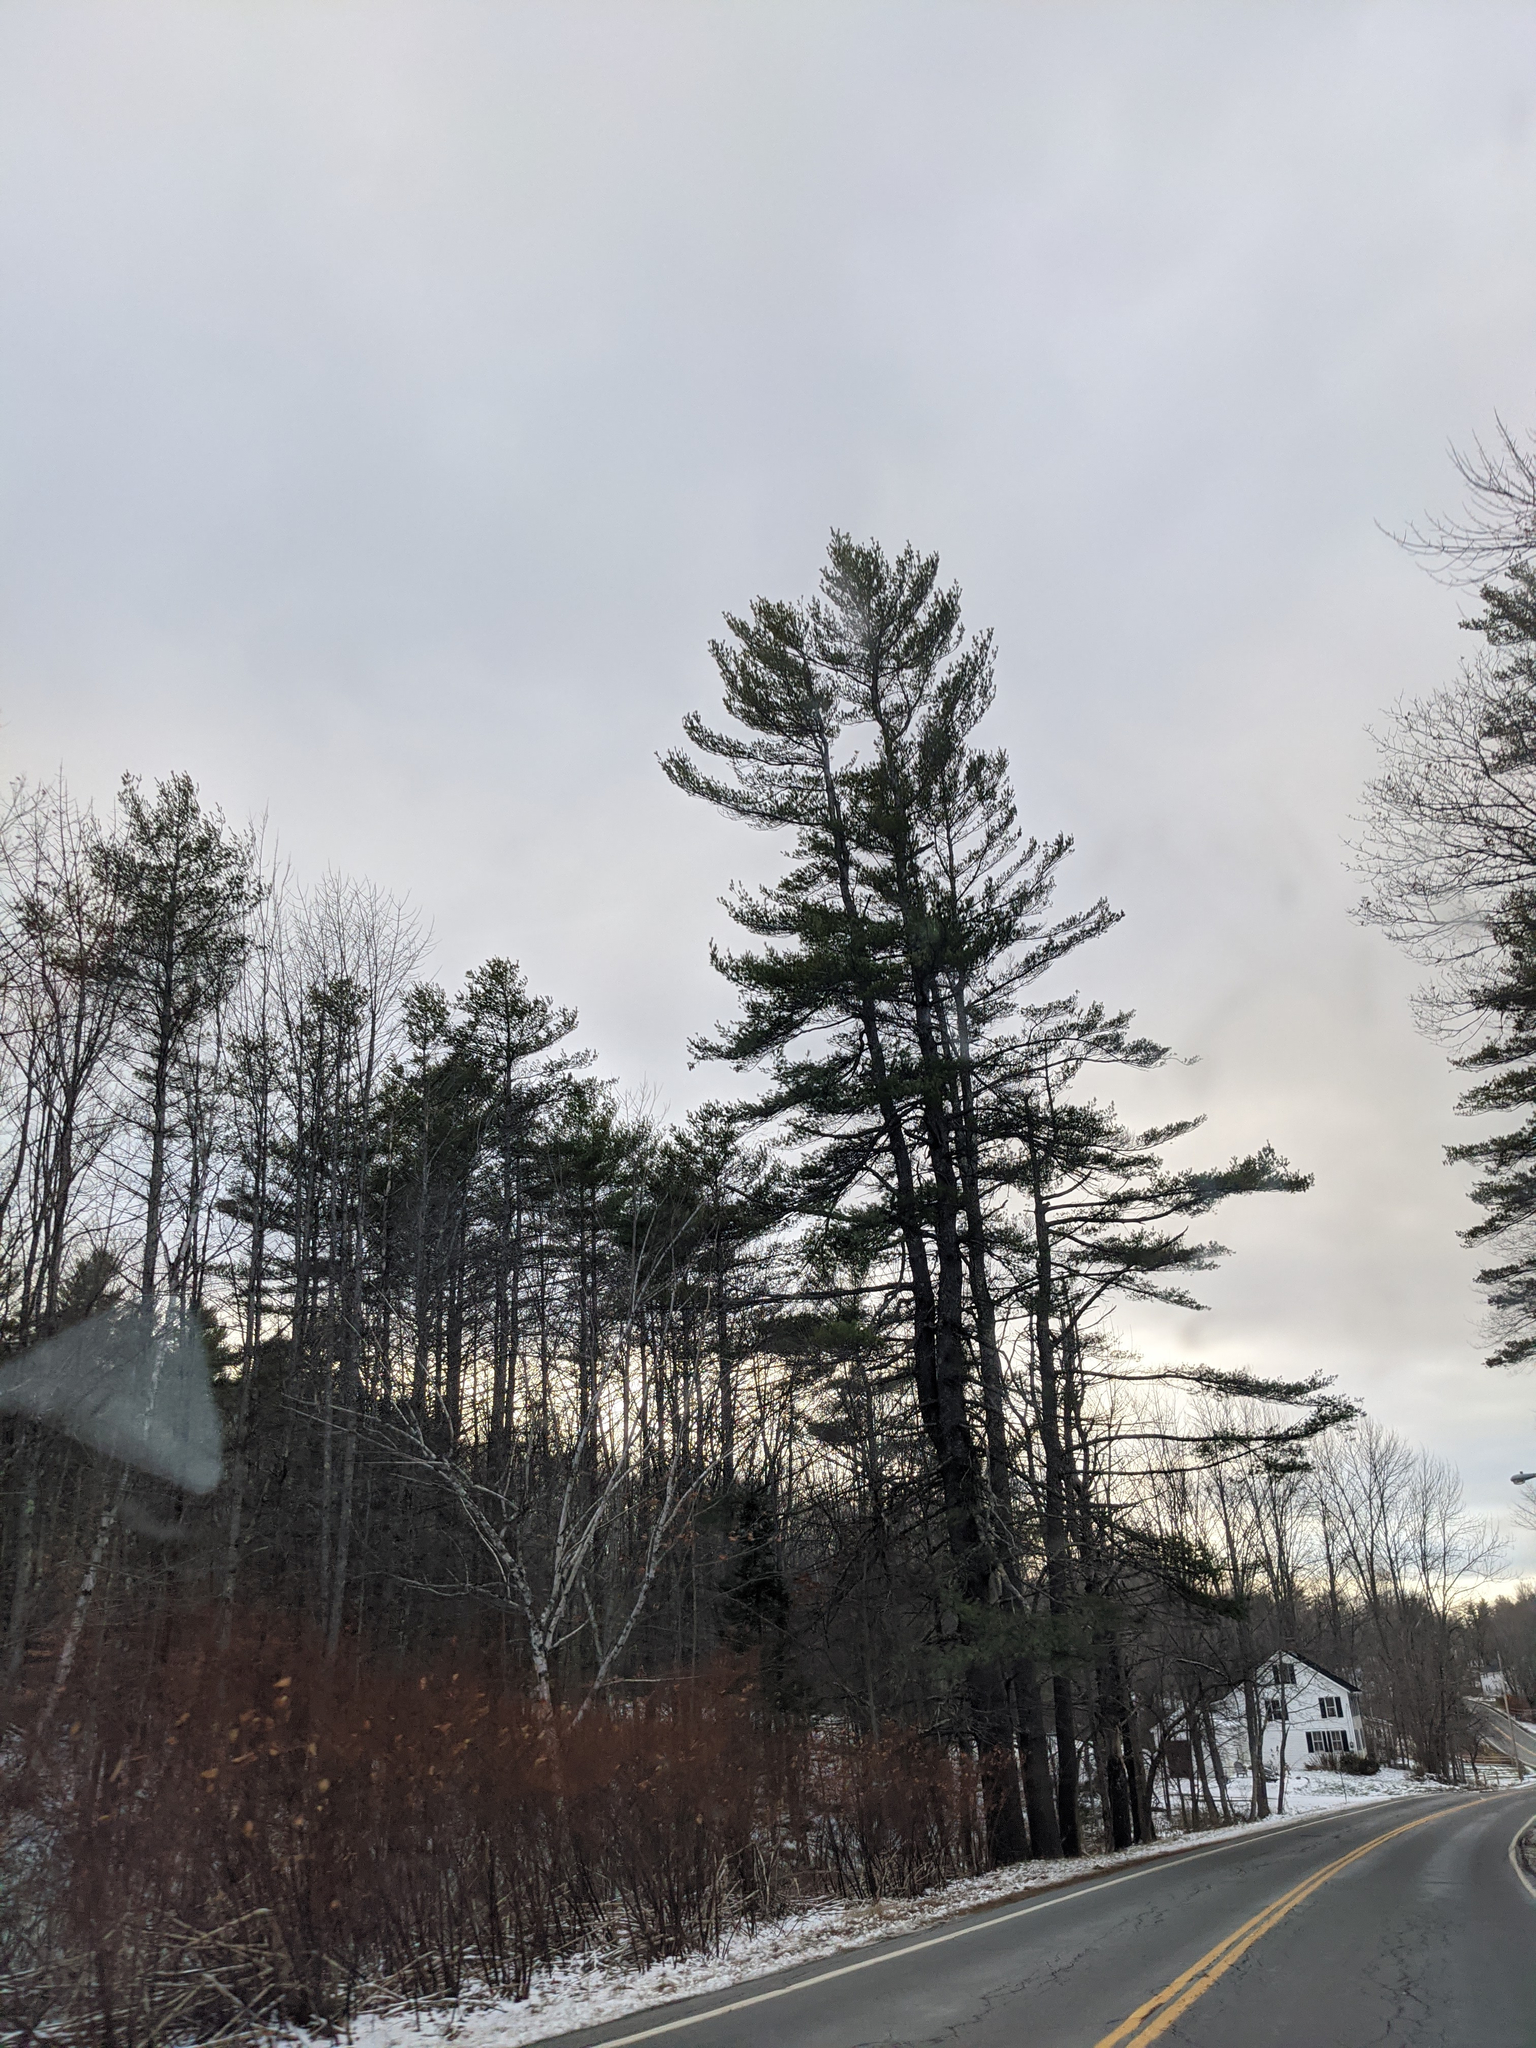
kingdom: Plantae
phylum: Tracheophyta
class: Pinopsida
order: Pinales
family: Pinaceae
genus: Pinus
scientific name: Pinus strobus
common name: Weymouth pine
